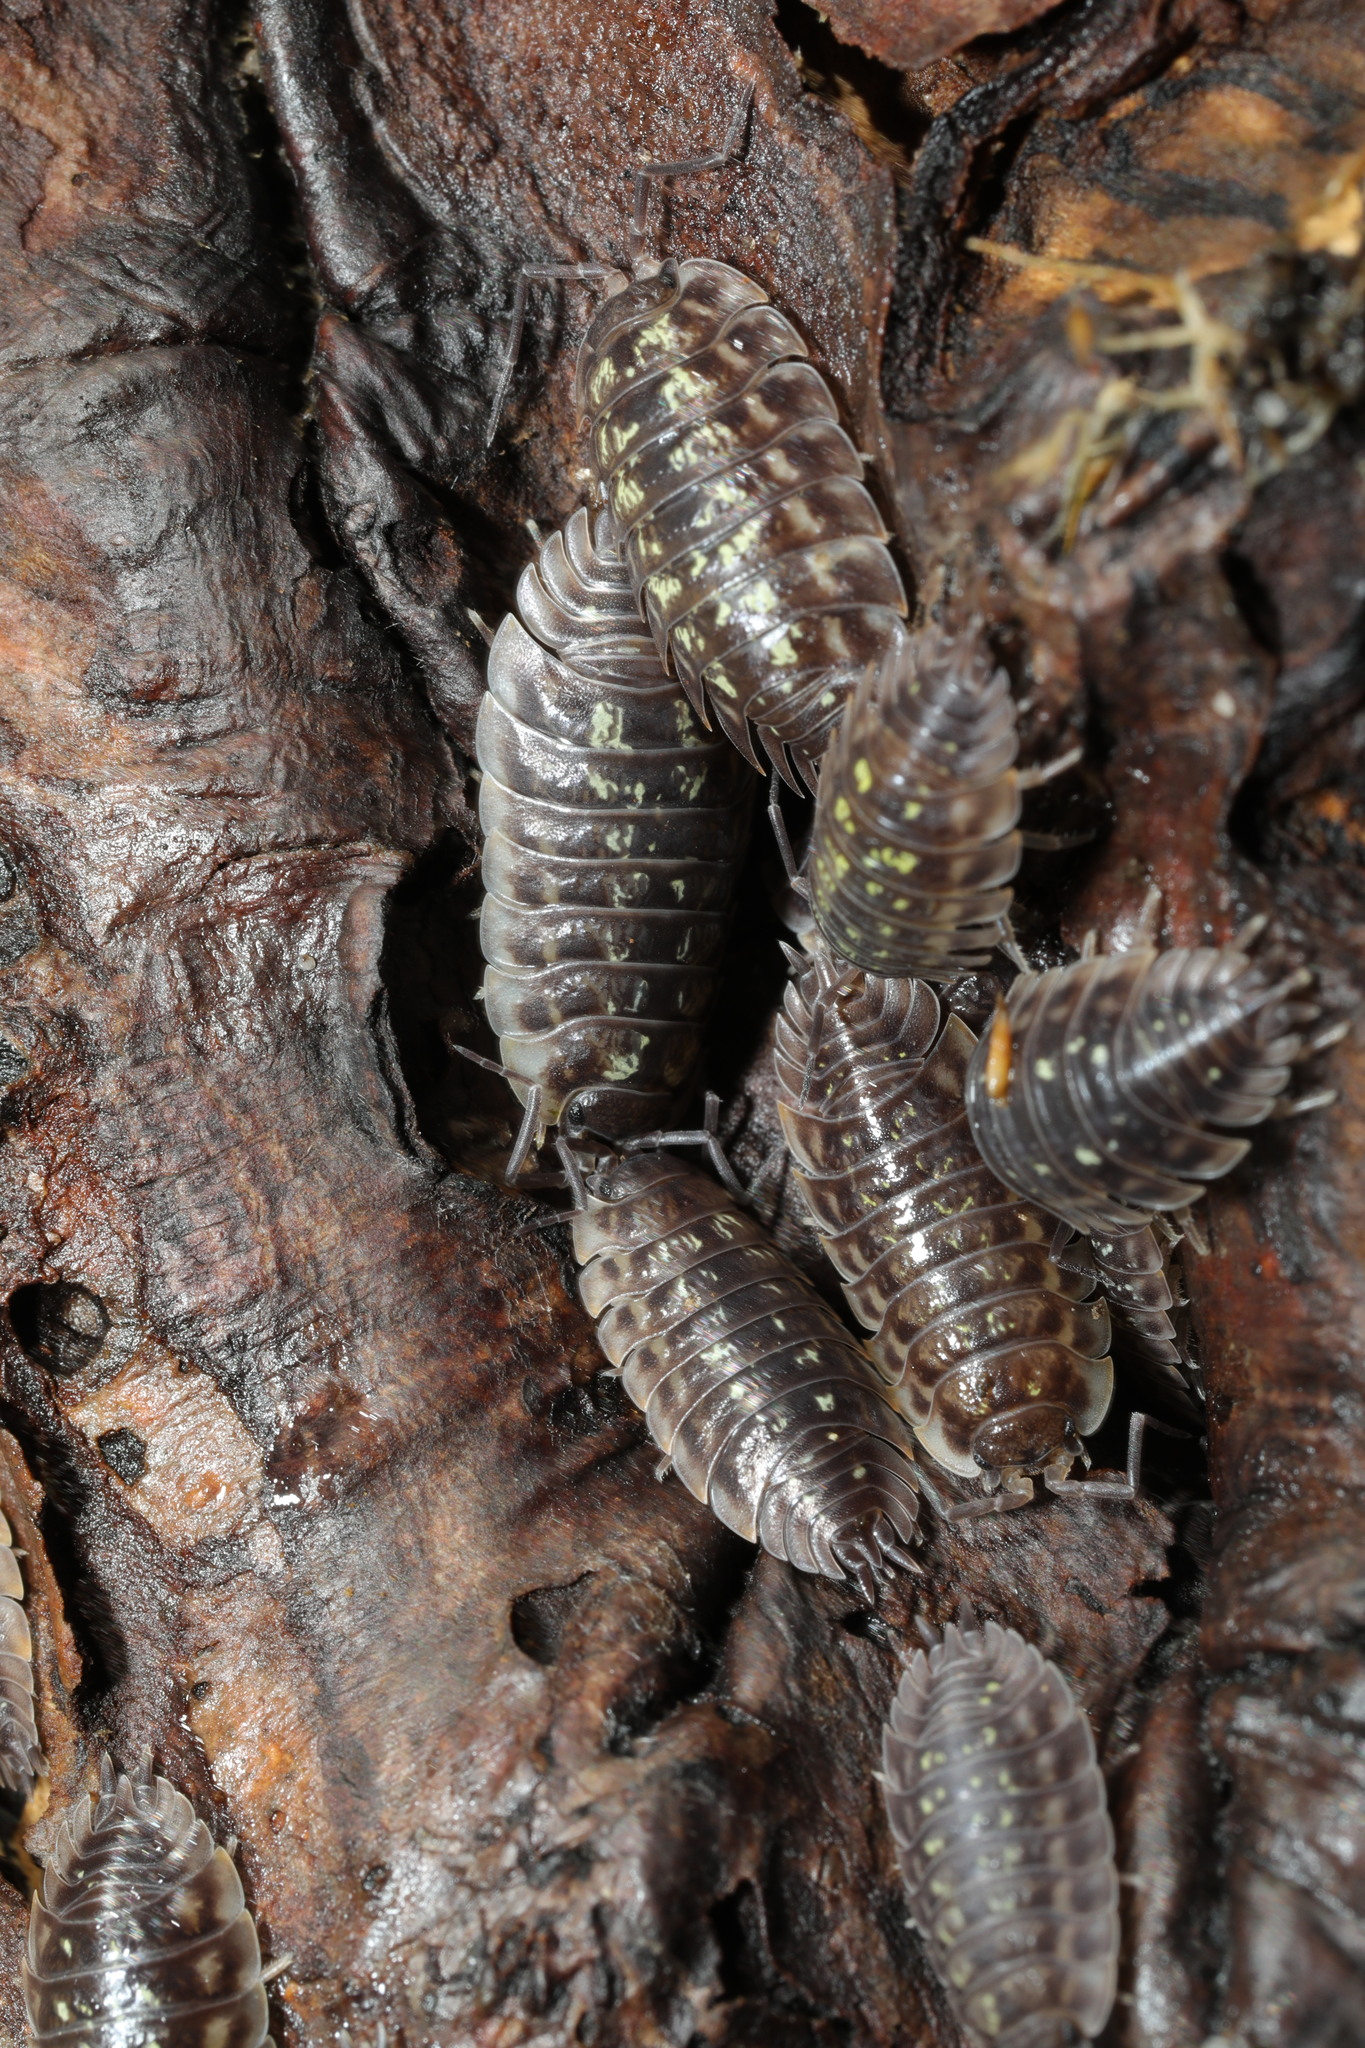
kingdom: Animalia
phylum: Arthropoda
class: Malacostraca
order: Isopoda
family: Oniscidae
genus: Oniscus
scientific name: Oniscus asellus
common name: Common shiny woodlouse
